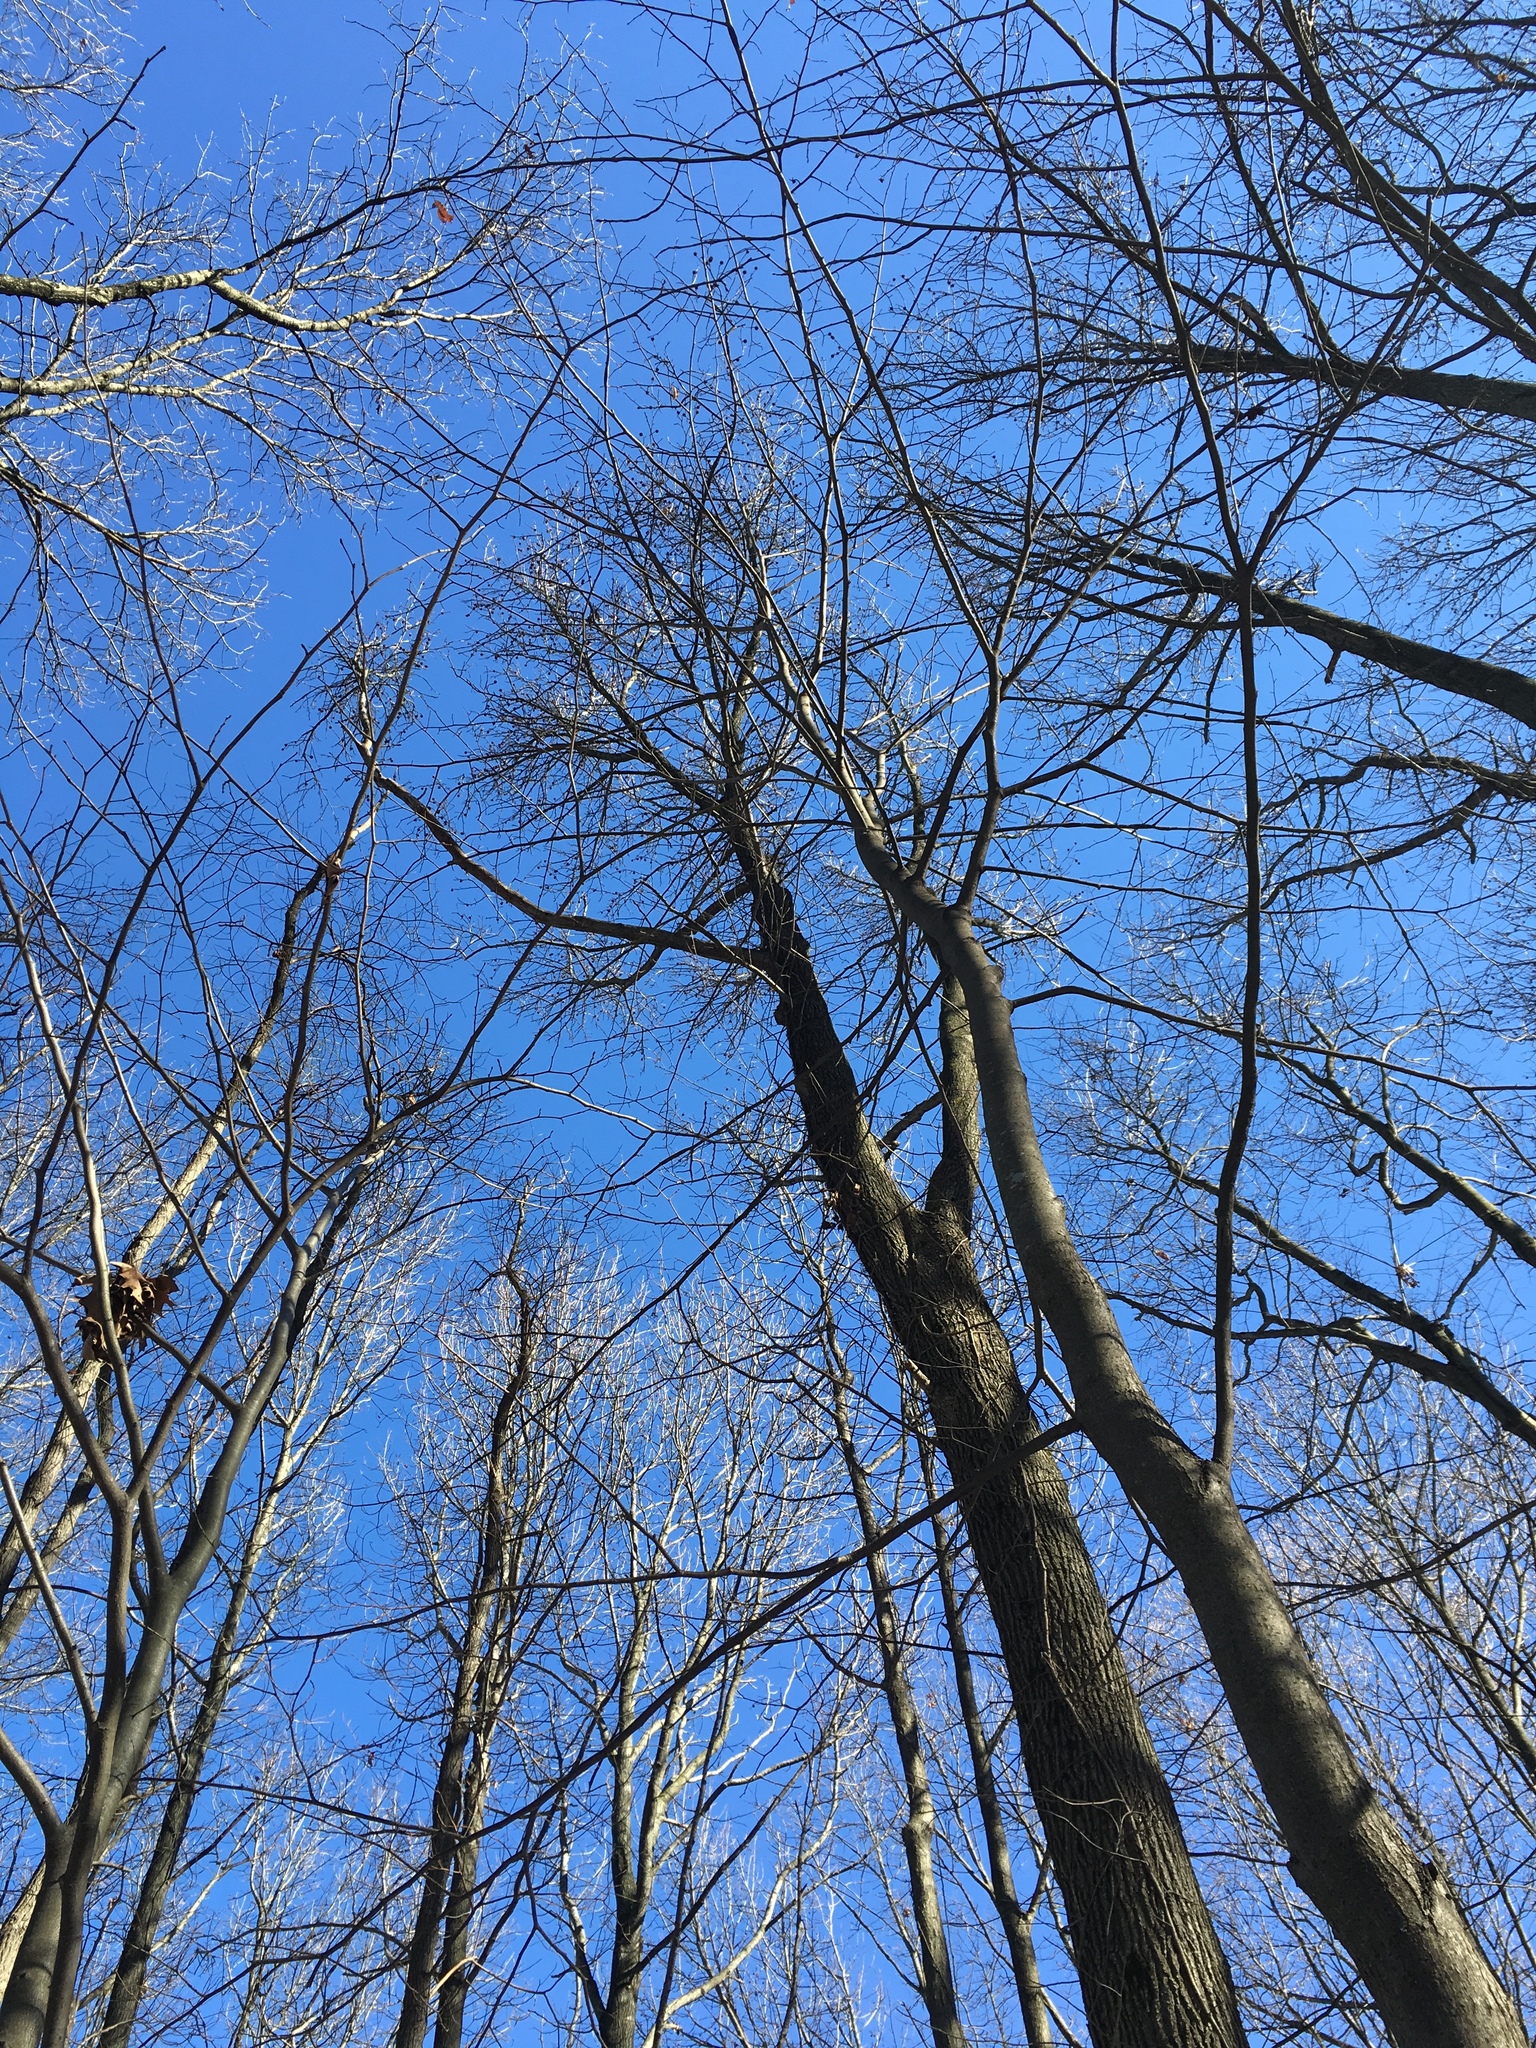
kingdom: Plantae
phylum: Tracheophyta
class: Magnoliopsida
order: Saxifragales
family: Altingiaceae
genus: Liquidambar
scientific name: Liquidambar styraciflua
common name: Sweet gum
